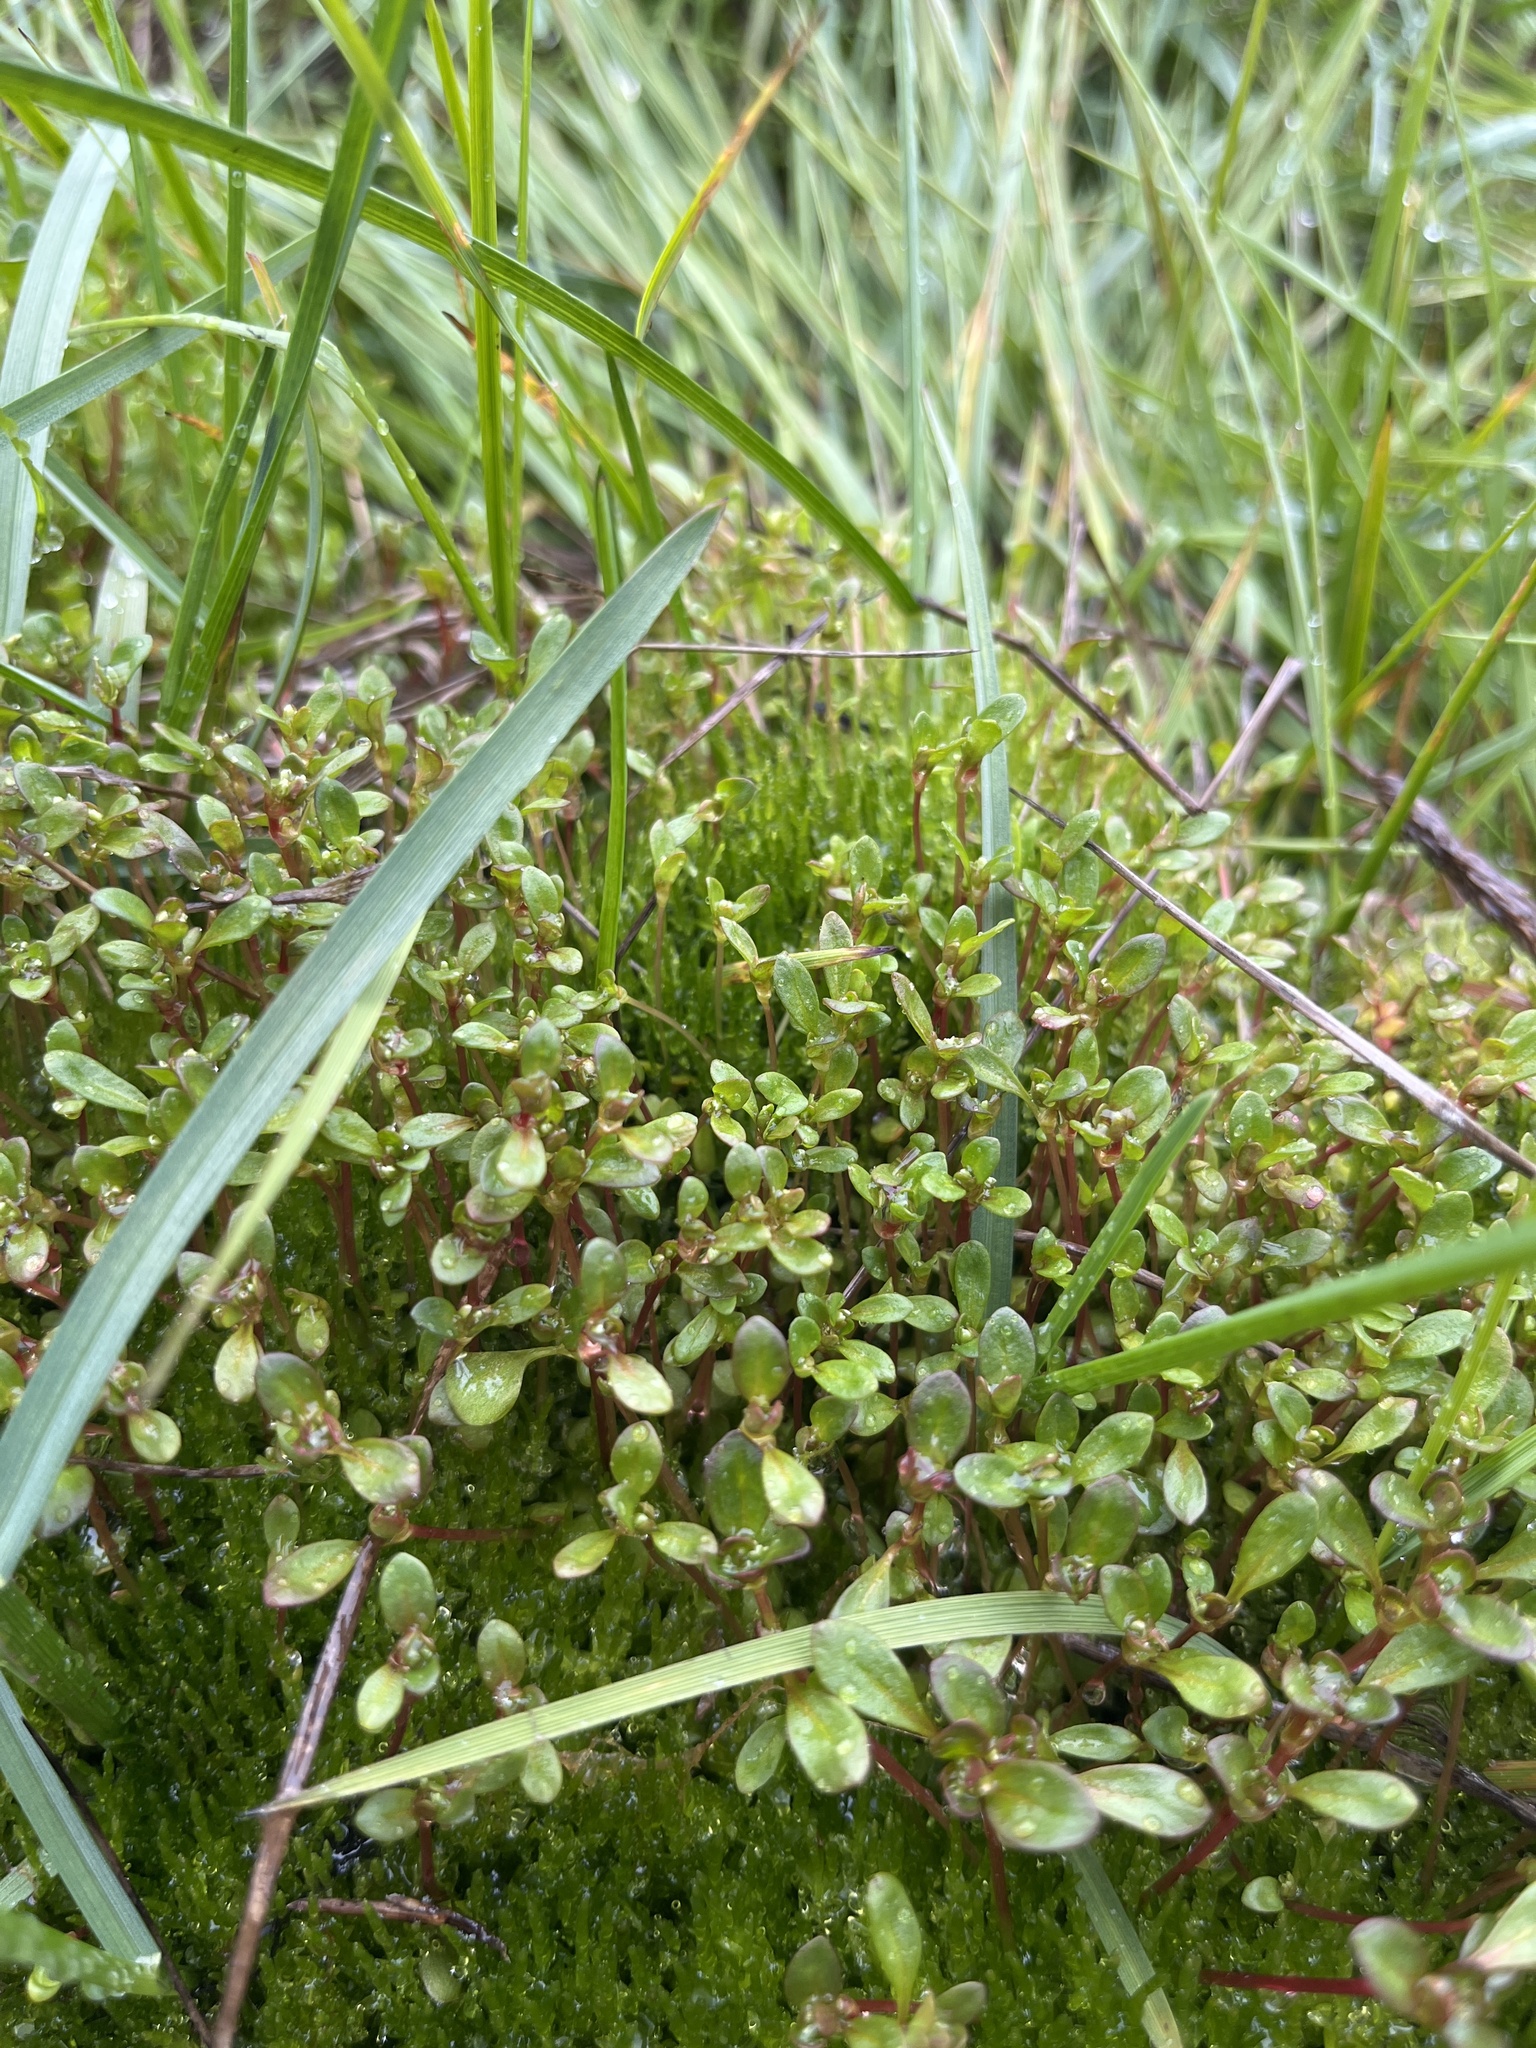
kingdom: Plantae
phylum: Tracheophyta
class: Magnoliopsida
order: Caryophyllales
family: Polygonaceae
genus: Koenigia
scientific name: Koenigia islandica
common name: Iceland-purslane
